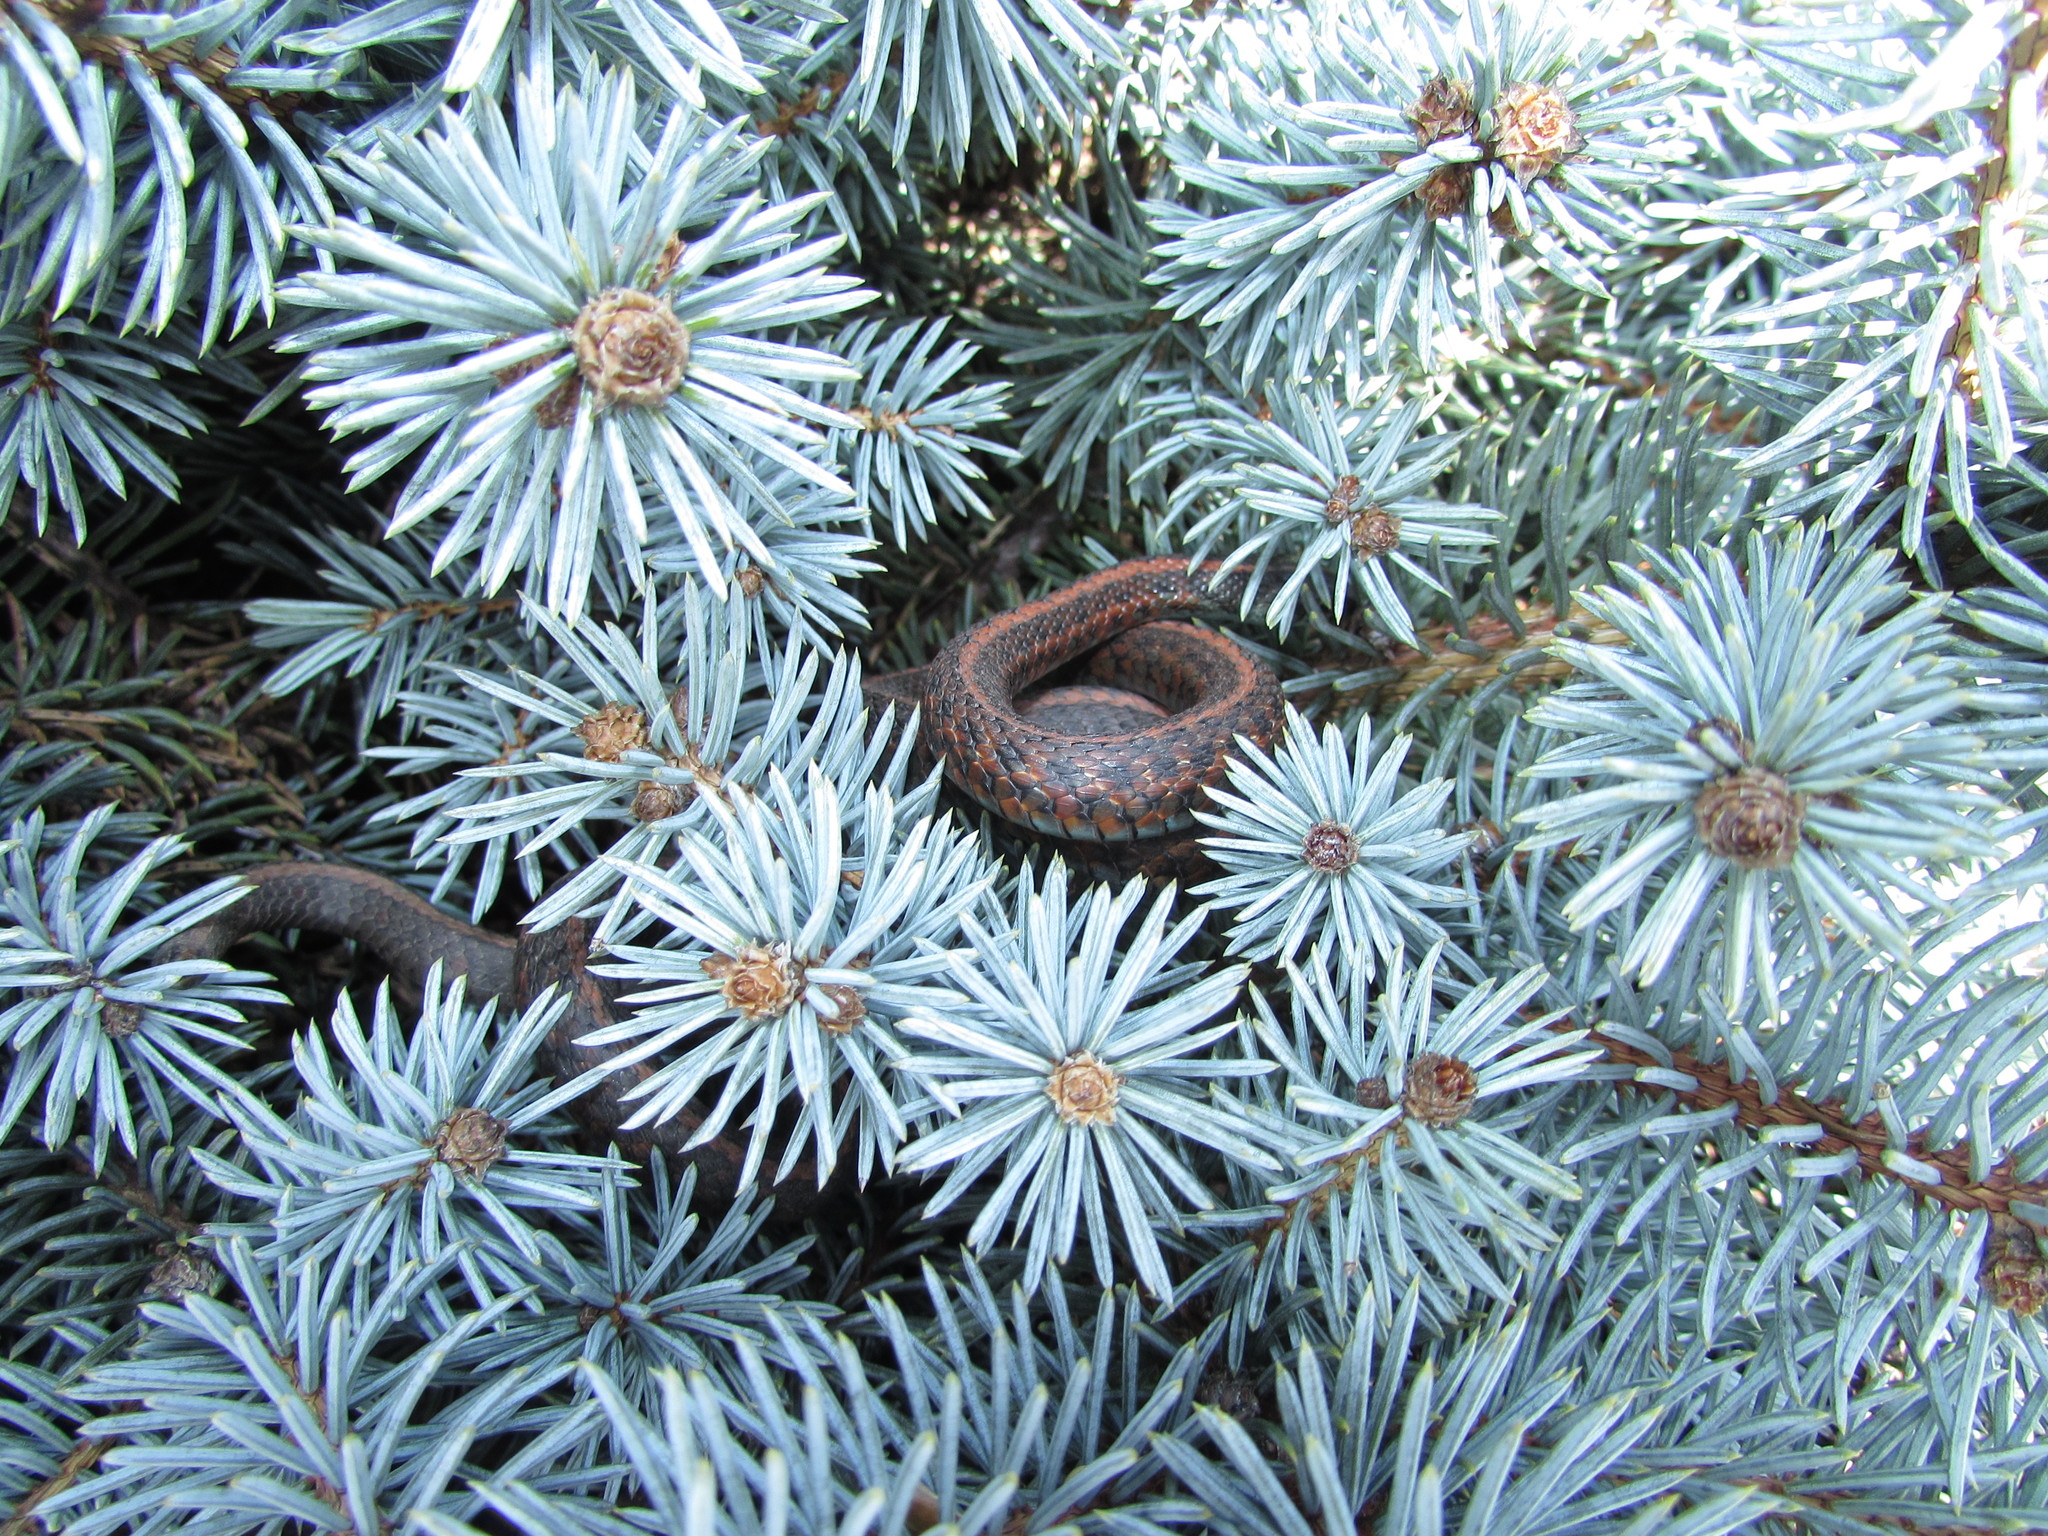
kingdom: Animalia
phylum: Chordata
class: Squamata
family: Colubridae
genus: Thamnophis
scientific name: Thamnophis ordinoides
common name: Northwestern garter snake
